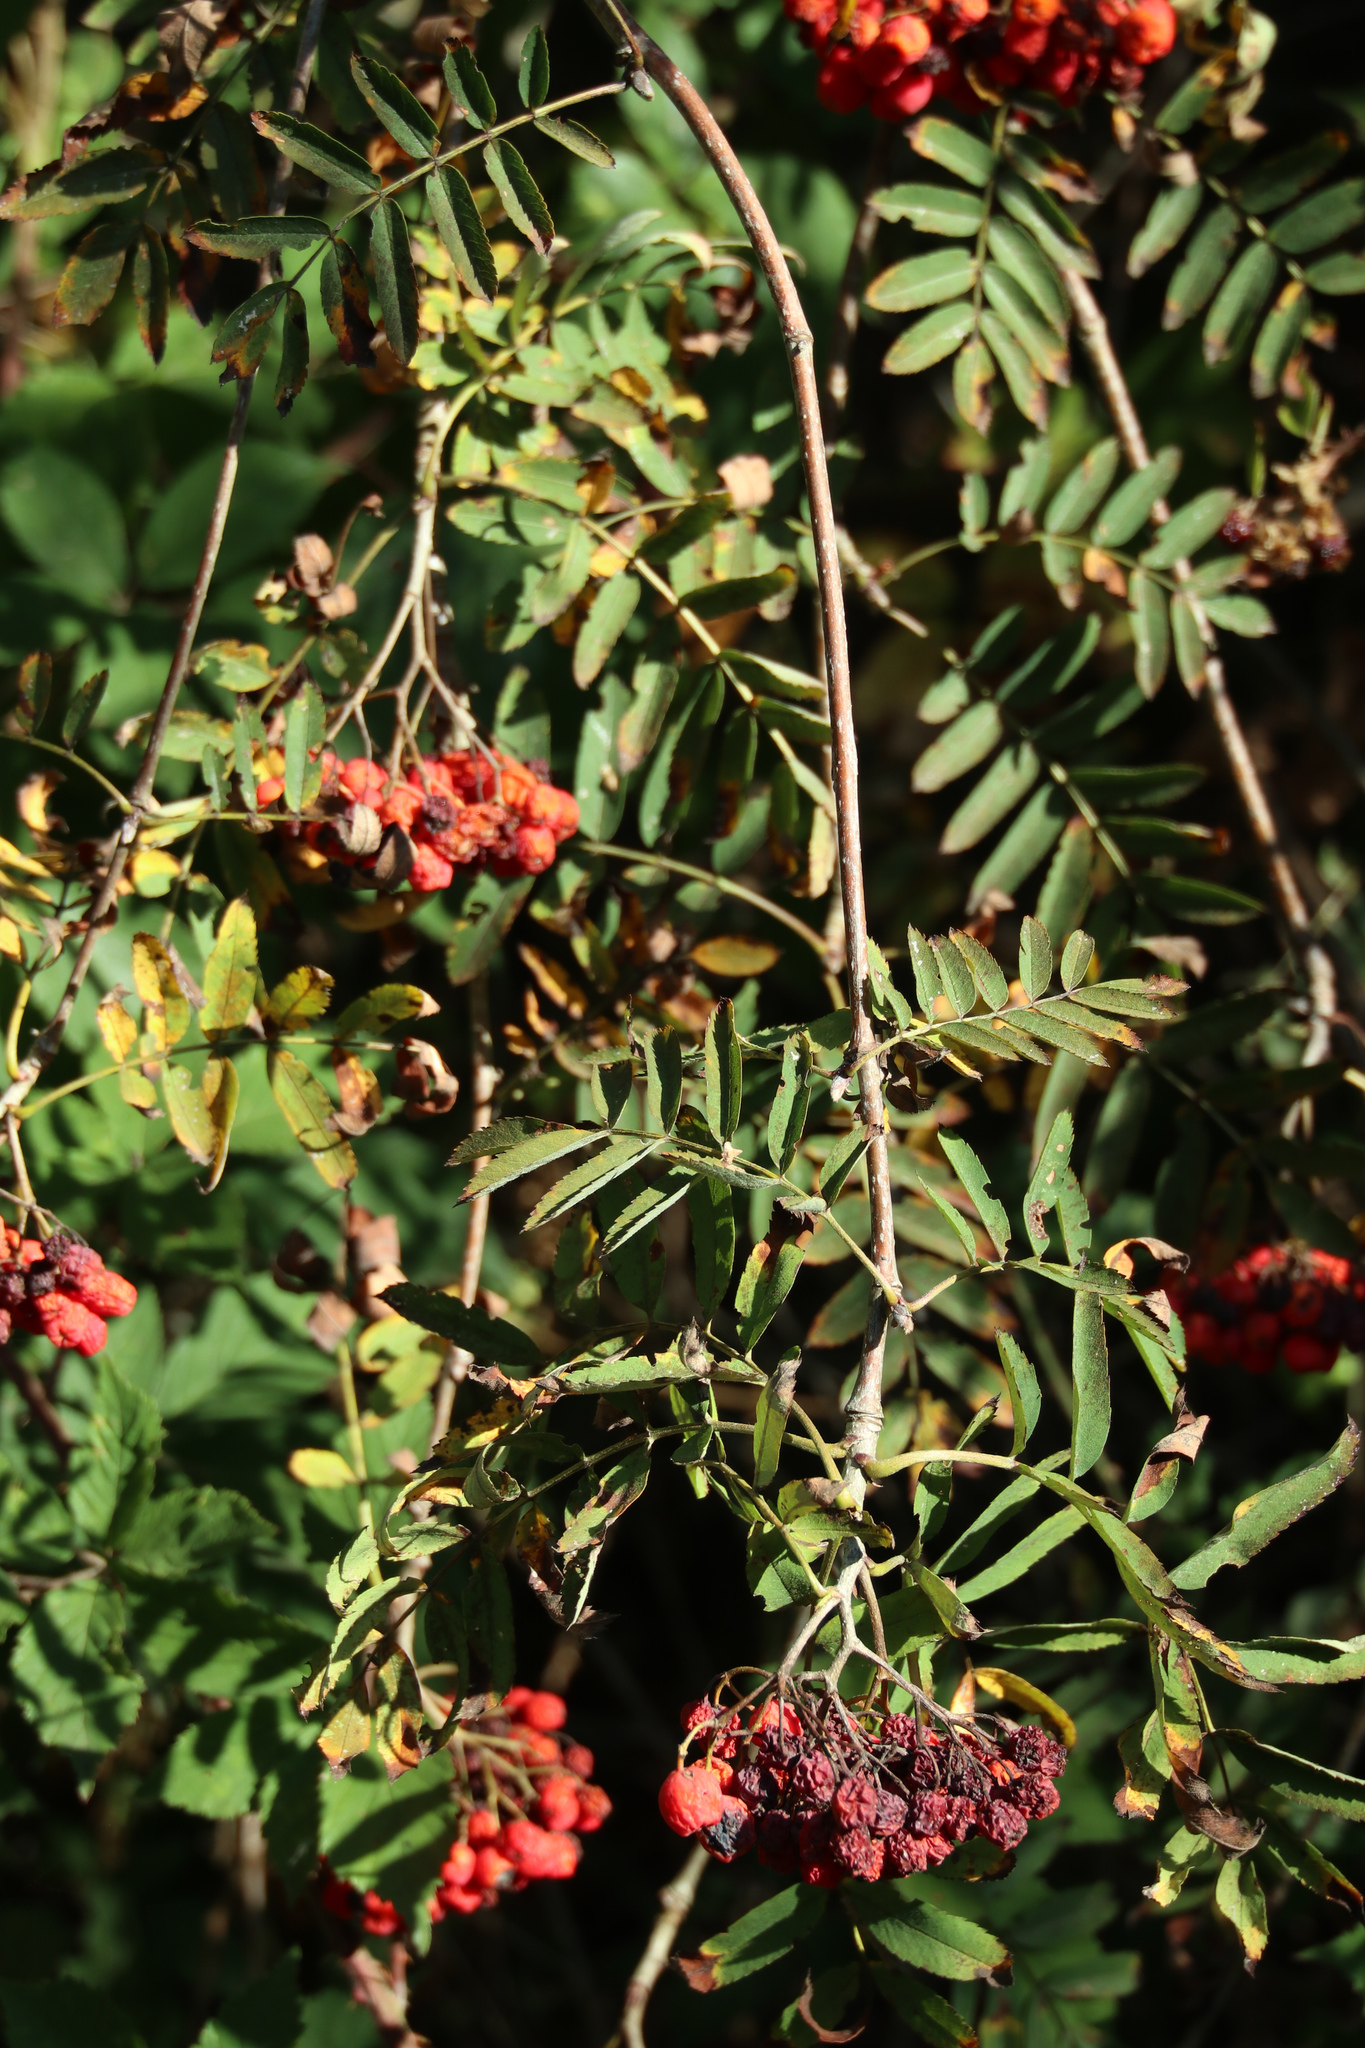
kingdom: Plantae
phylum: Tracheophyta
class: Magnoliopsida
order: Rosales
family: Rosaceae
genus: Sorbus
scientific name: Sorbus aucuparia
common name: Rowan
